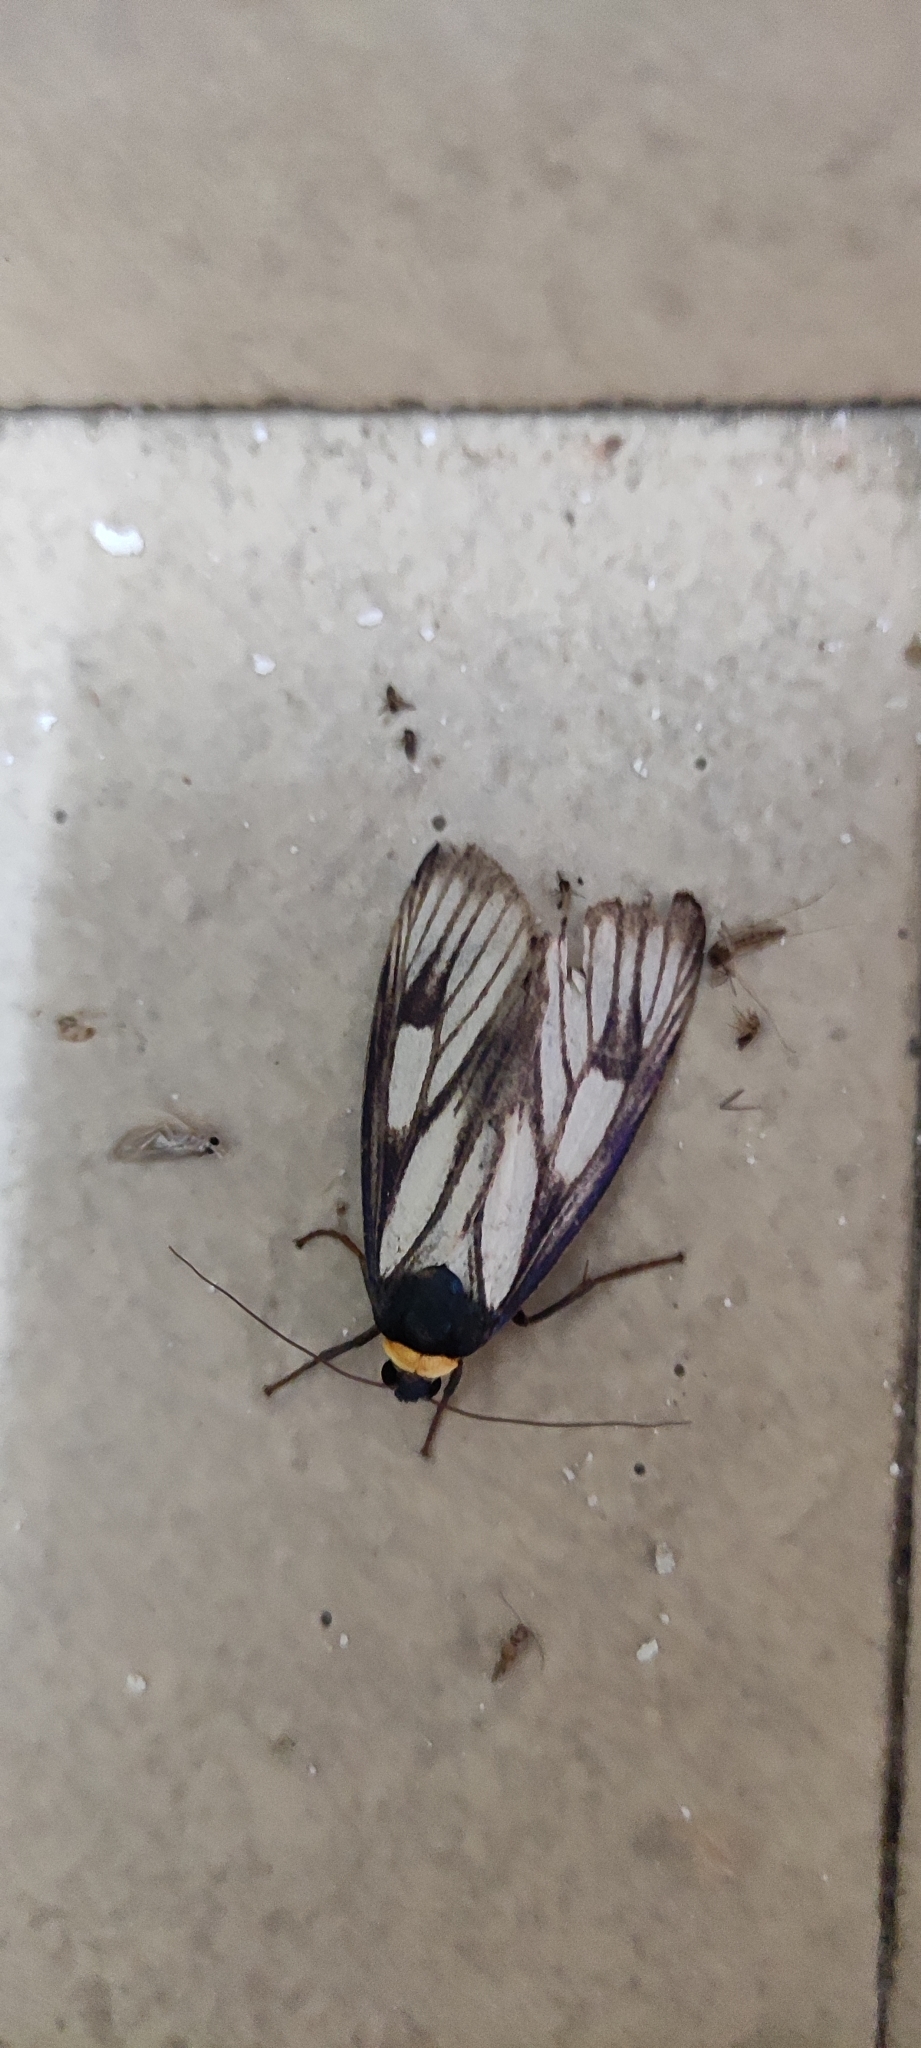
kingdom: Animalia
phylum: Arthropoda
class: Insecta
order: Lepidoptera
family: Erebidae
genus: Macrobrochis
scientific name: Macrobrochis prasena
